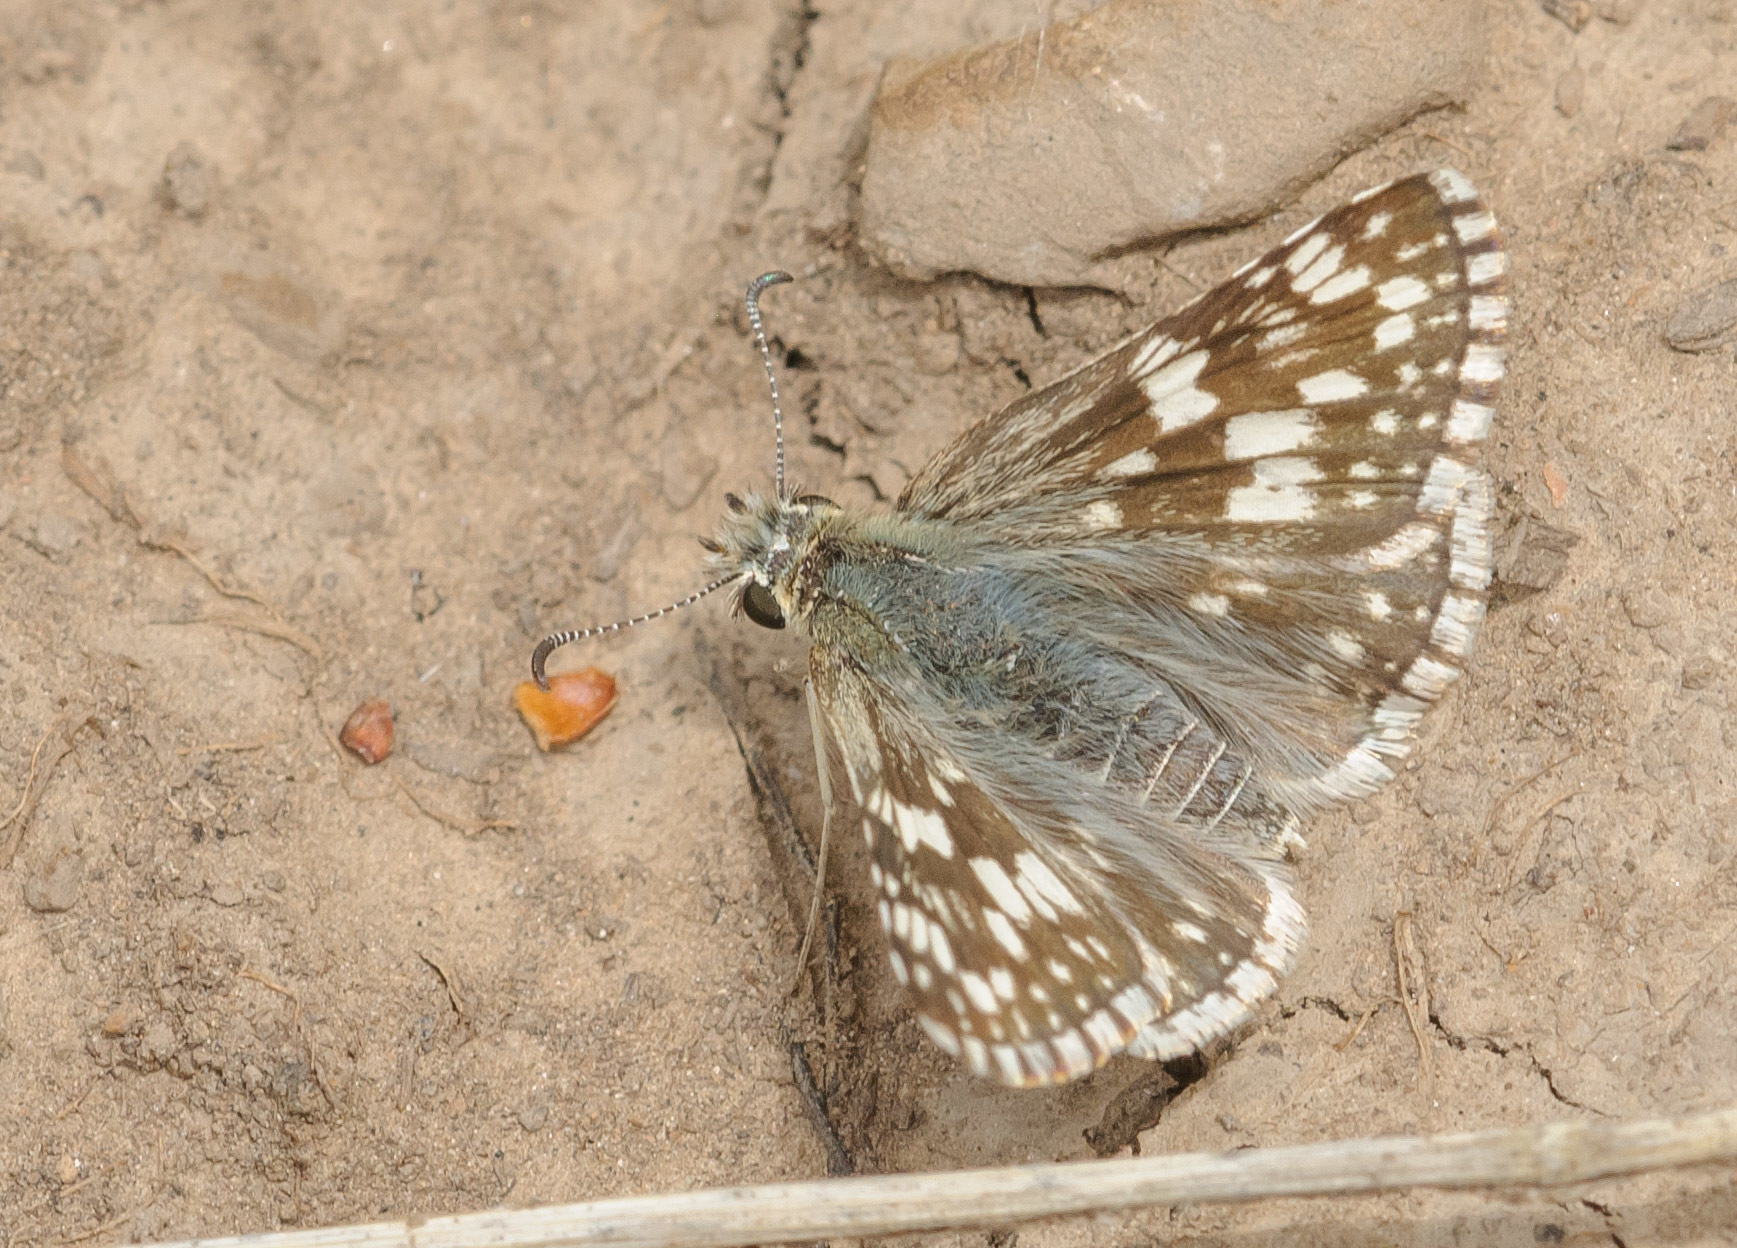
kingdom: Animalia
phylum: Arthropoda
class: Insecta
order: Lepidoptera
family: Hesperiidae
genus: Burnsius
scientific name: Burnsius communis
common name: Common checkered-skipper
